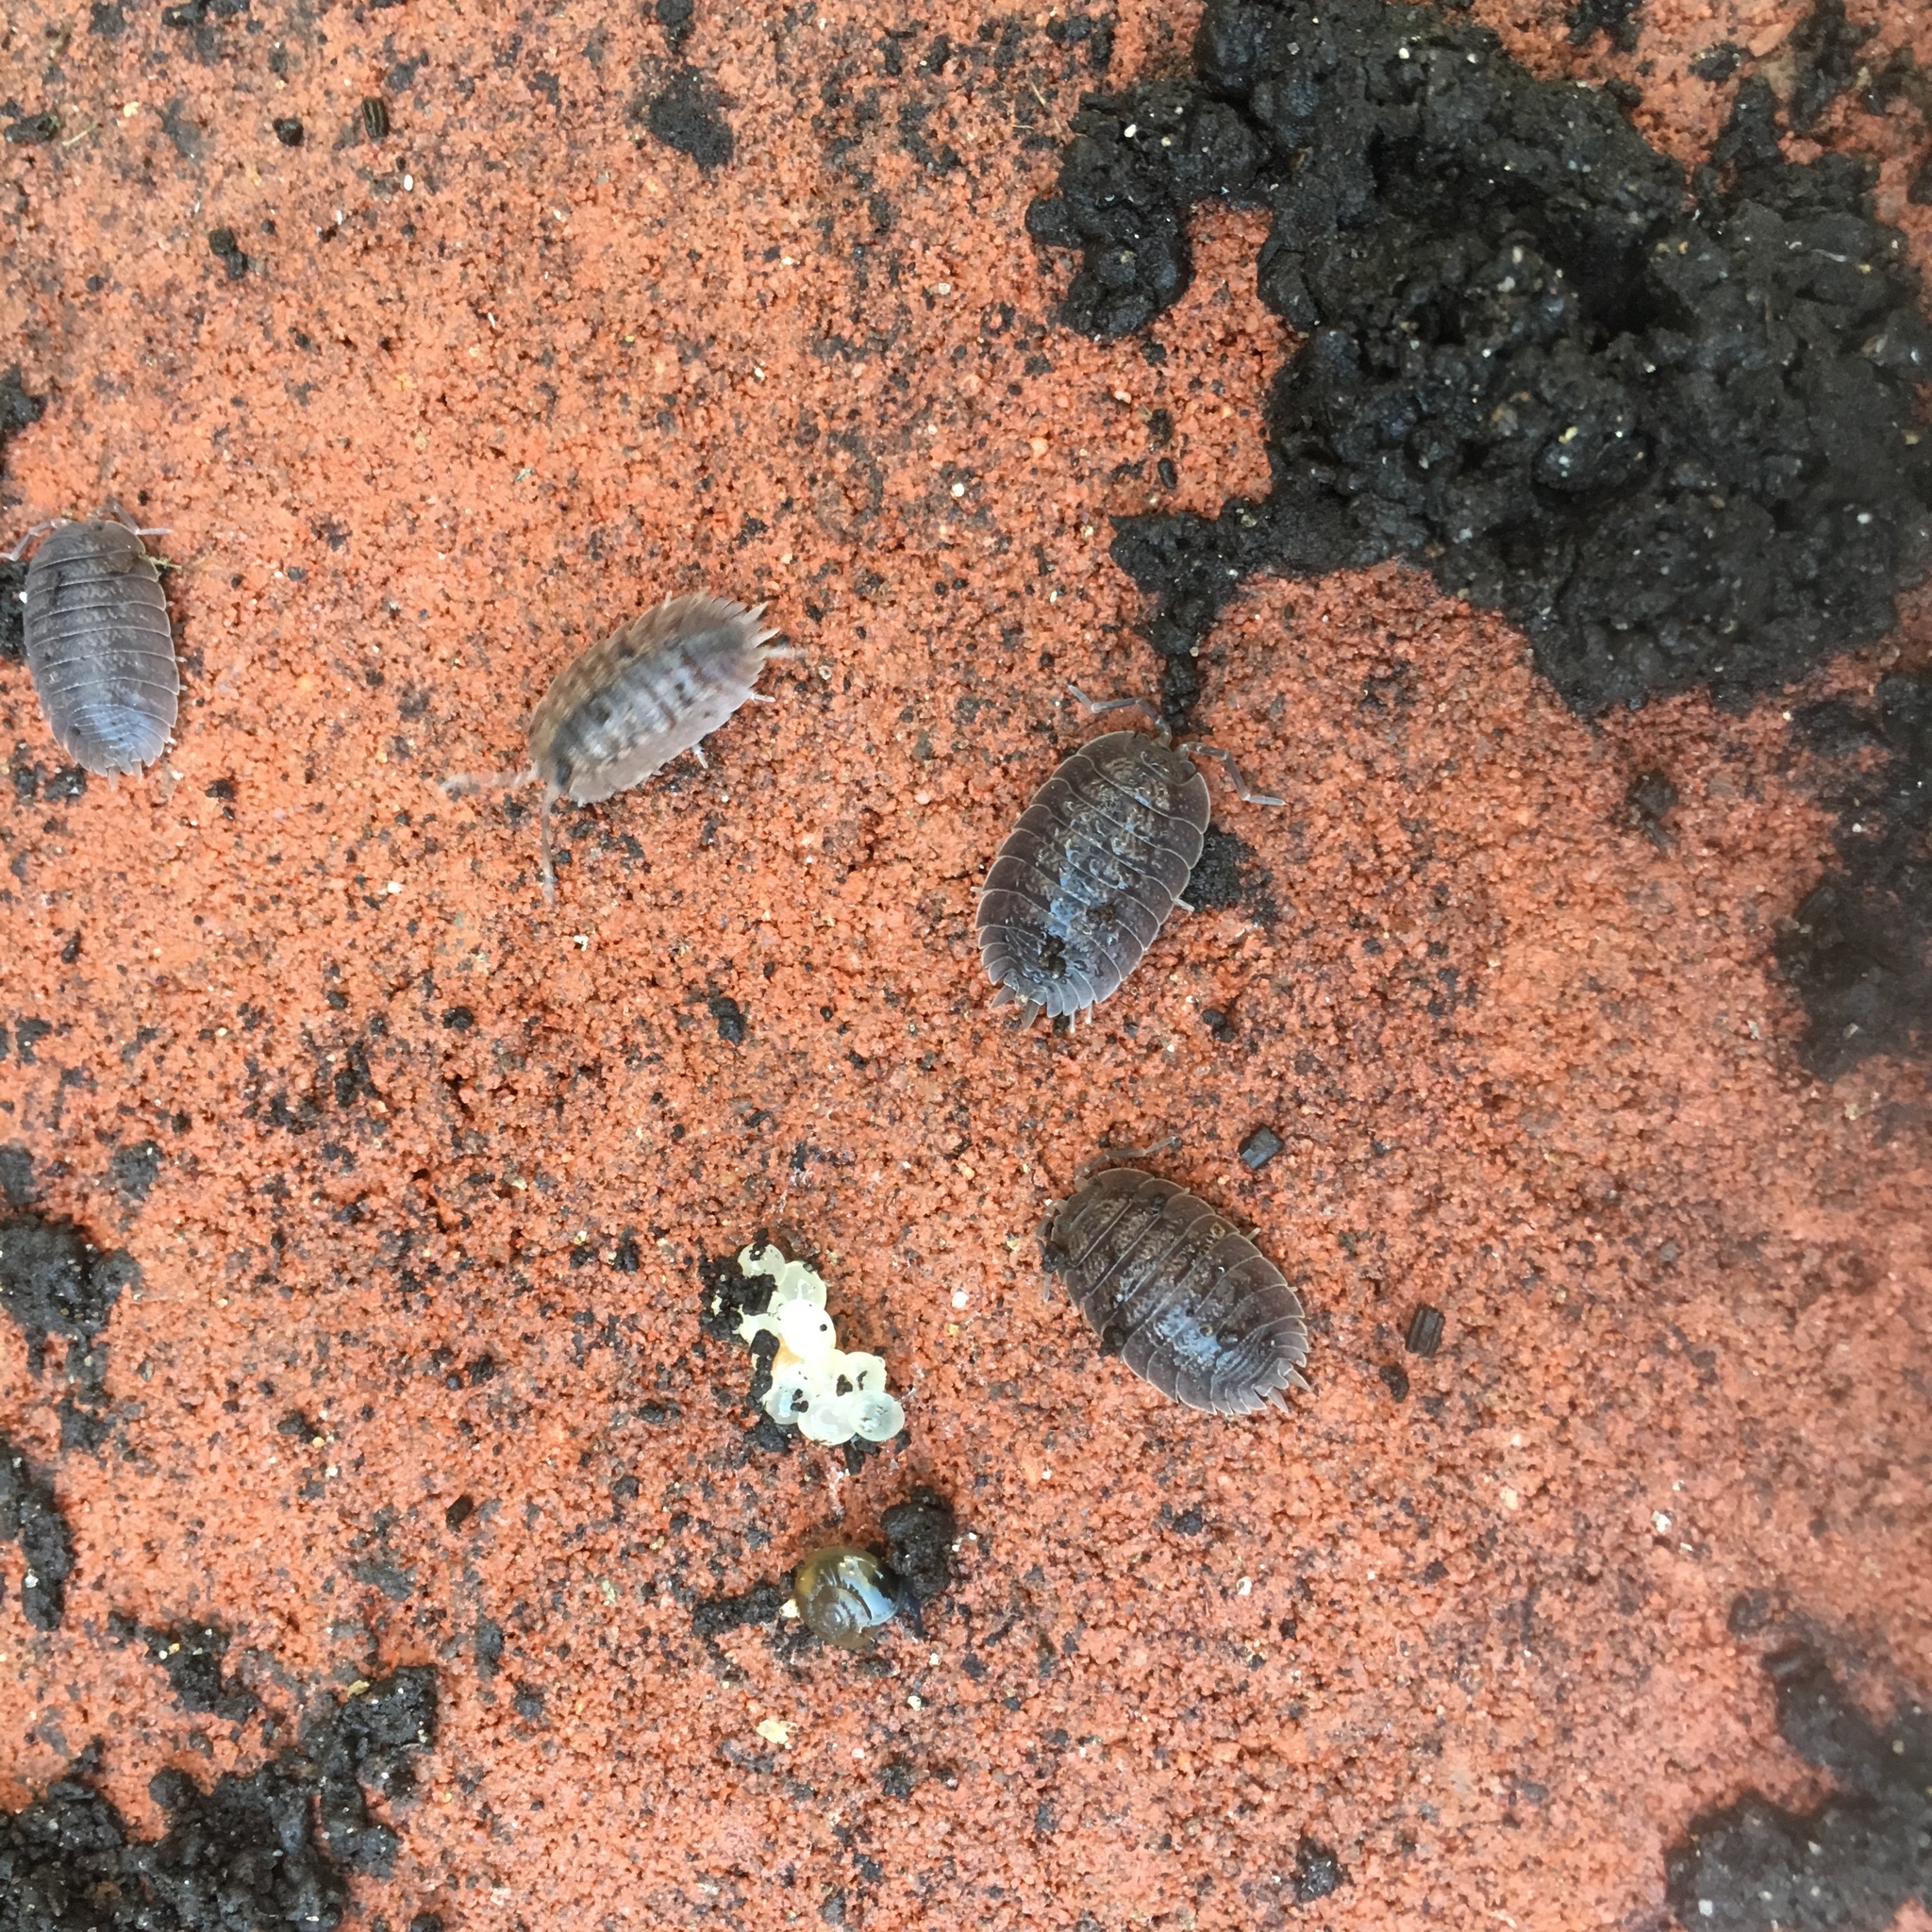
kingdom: Animalia
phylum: Arthropoda
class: Malacostraca
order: Isopoda
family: Porcellionidae
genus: Porcellio
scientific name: Porcellio dilatatus
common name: Isopod
